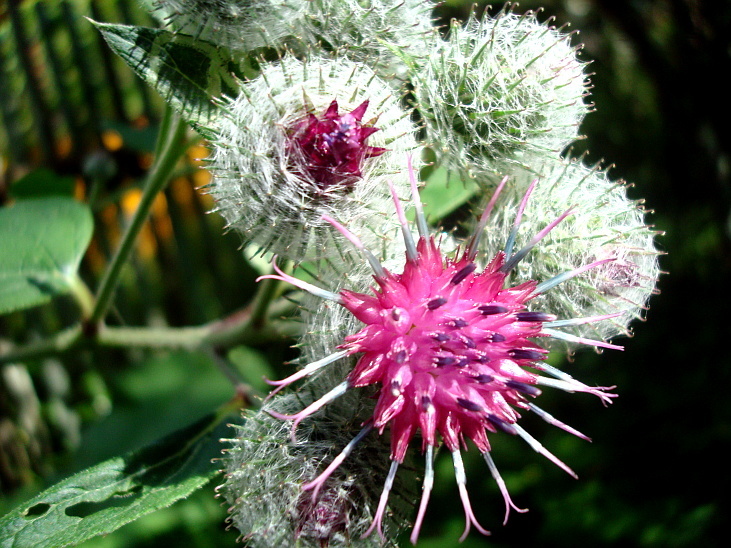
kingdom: Plantae
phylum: Tracheophyta
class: Magnoliopsida
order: Asterales
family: Asteraceae
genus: Arctium
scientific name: Arctium tomentosum
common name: Woolly burdock
